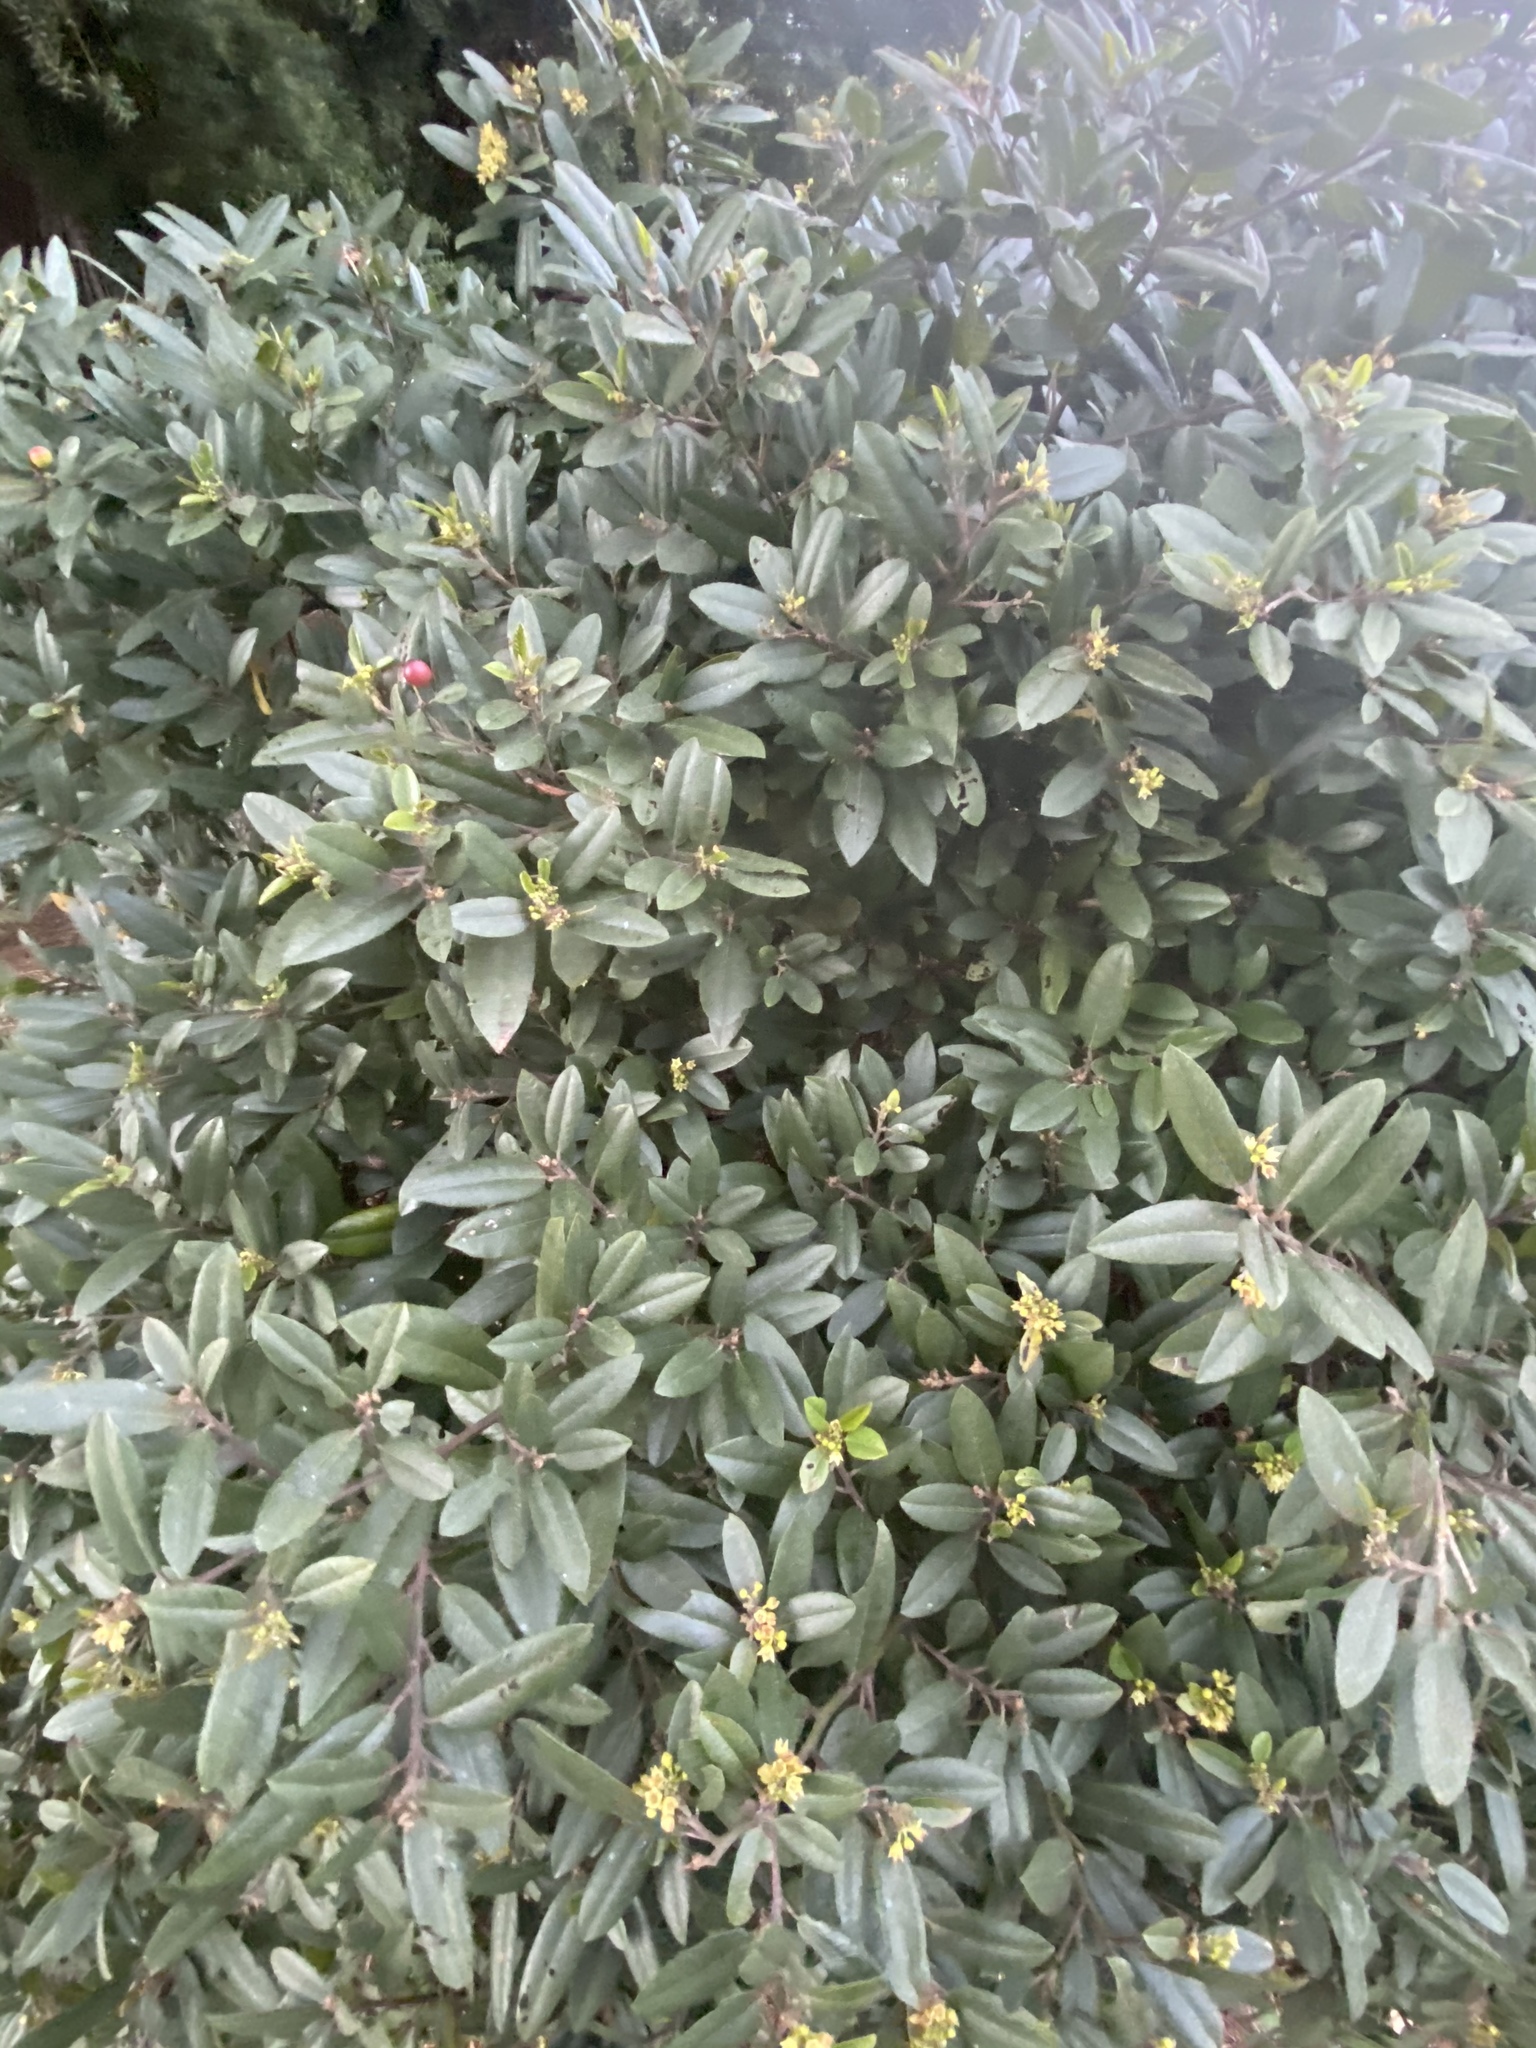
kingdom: Plantae
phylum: Tracheophyta
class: Magnoliopsida
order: Rosales
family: Rhamnaceae
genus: Frangula
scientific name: Frangula californica
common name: California buckthorn
